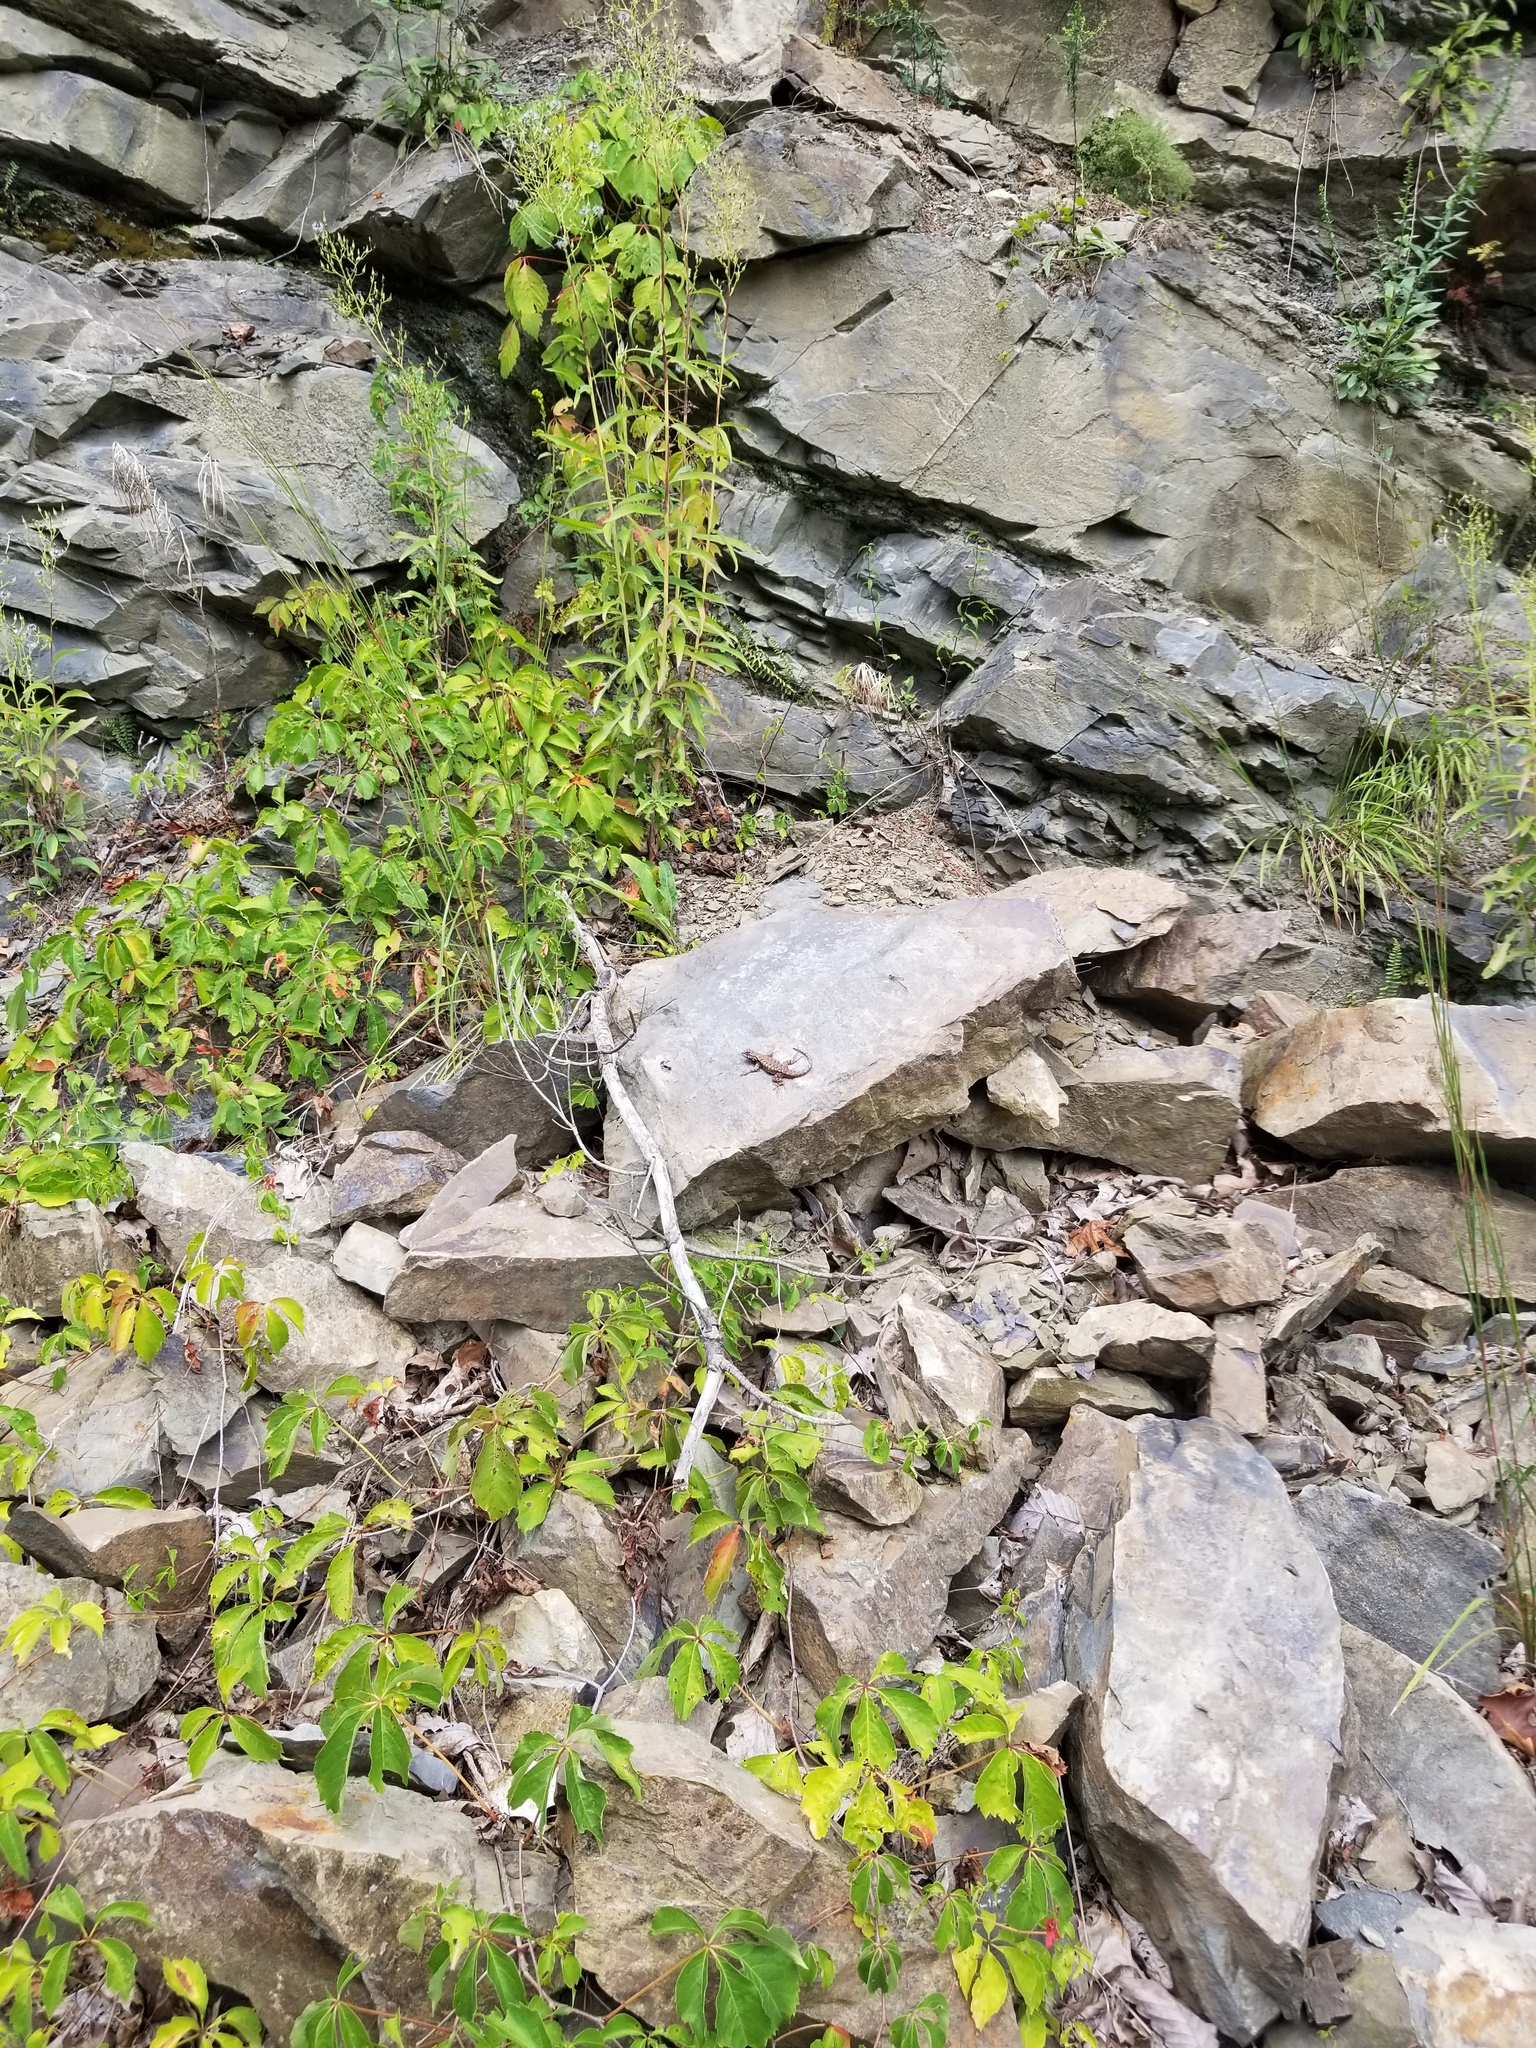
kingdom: Animalia
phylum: Chordata
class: Squamata
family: Phrynosomatidae
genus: Sceloporus
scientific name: Sceloporus undulatus
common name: Eastern fence lizard
